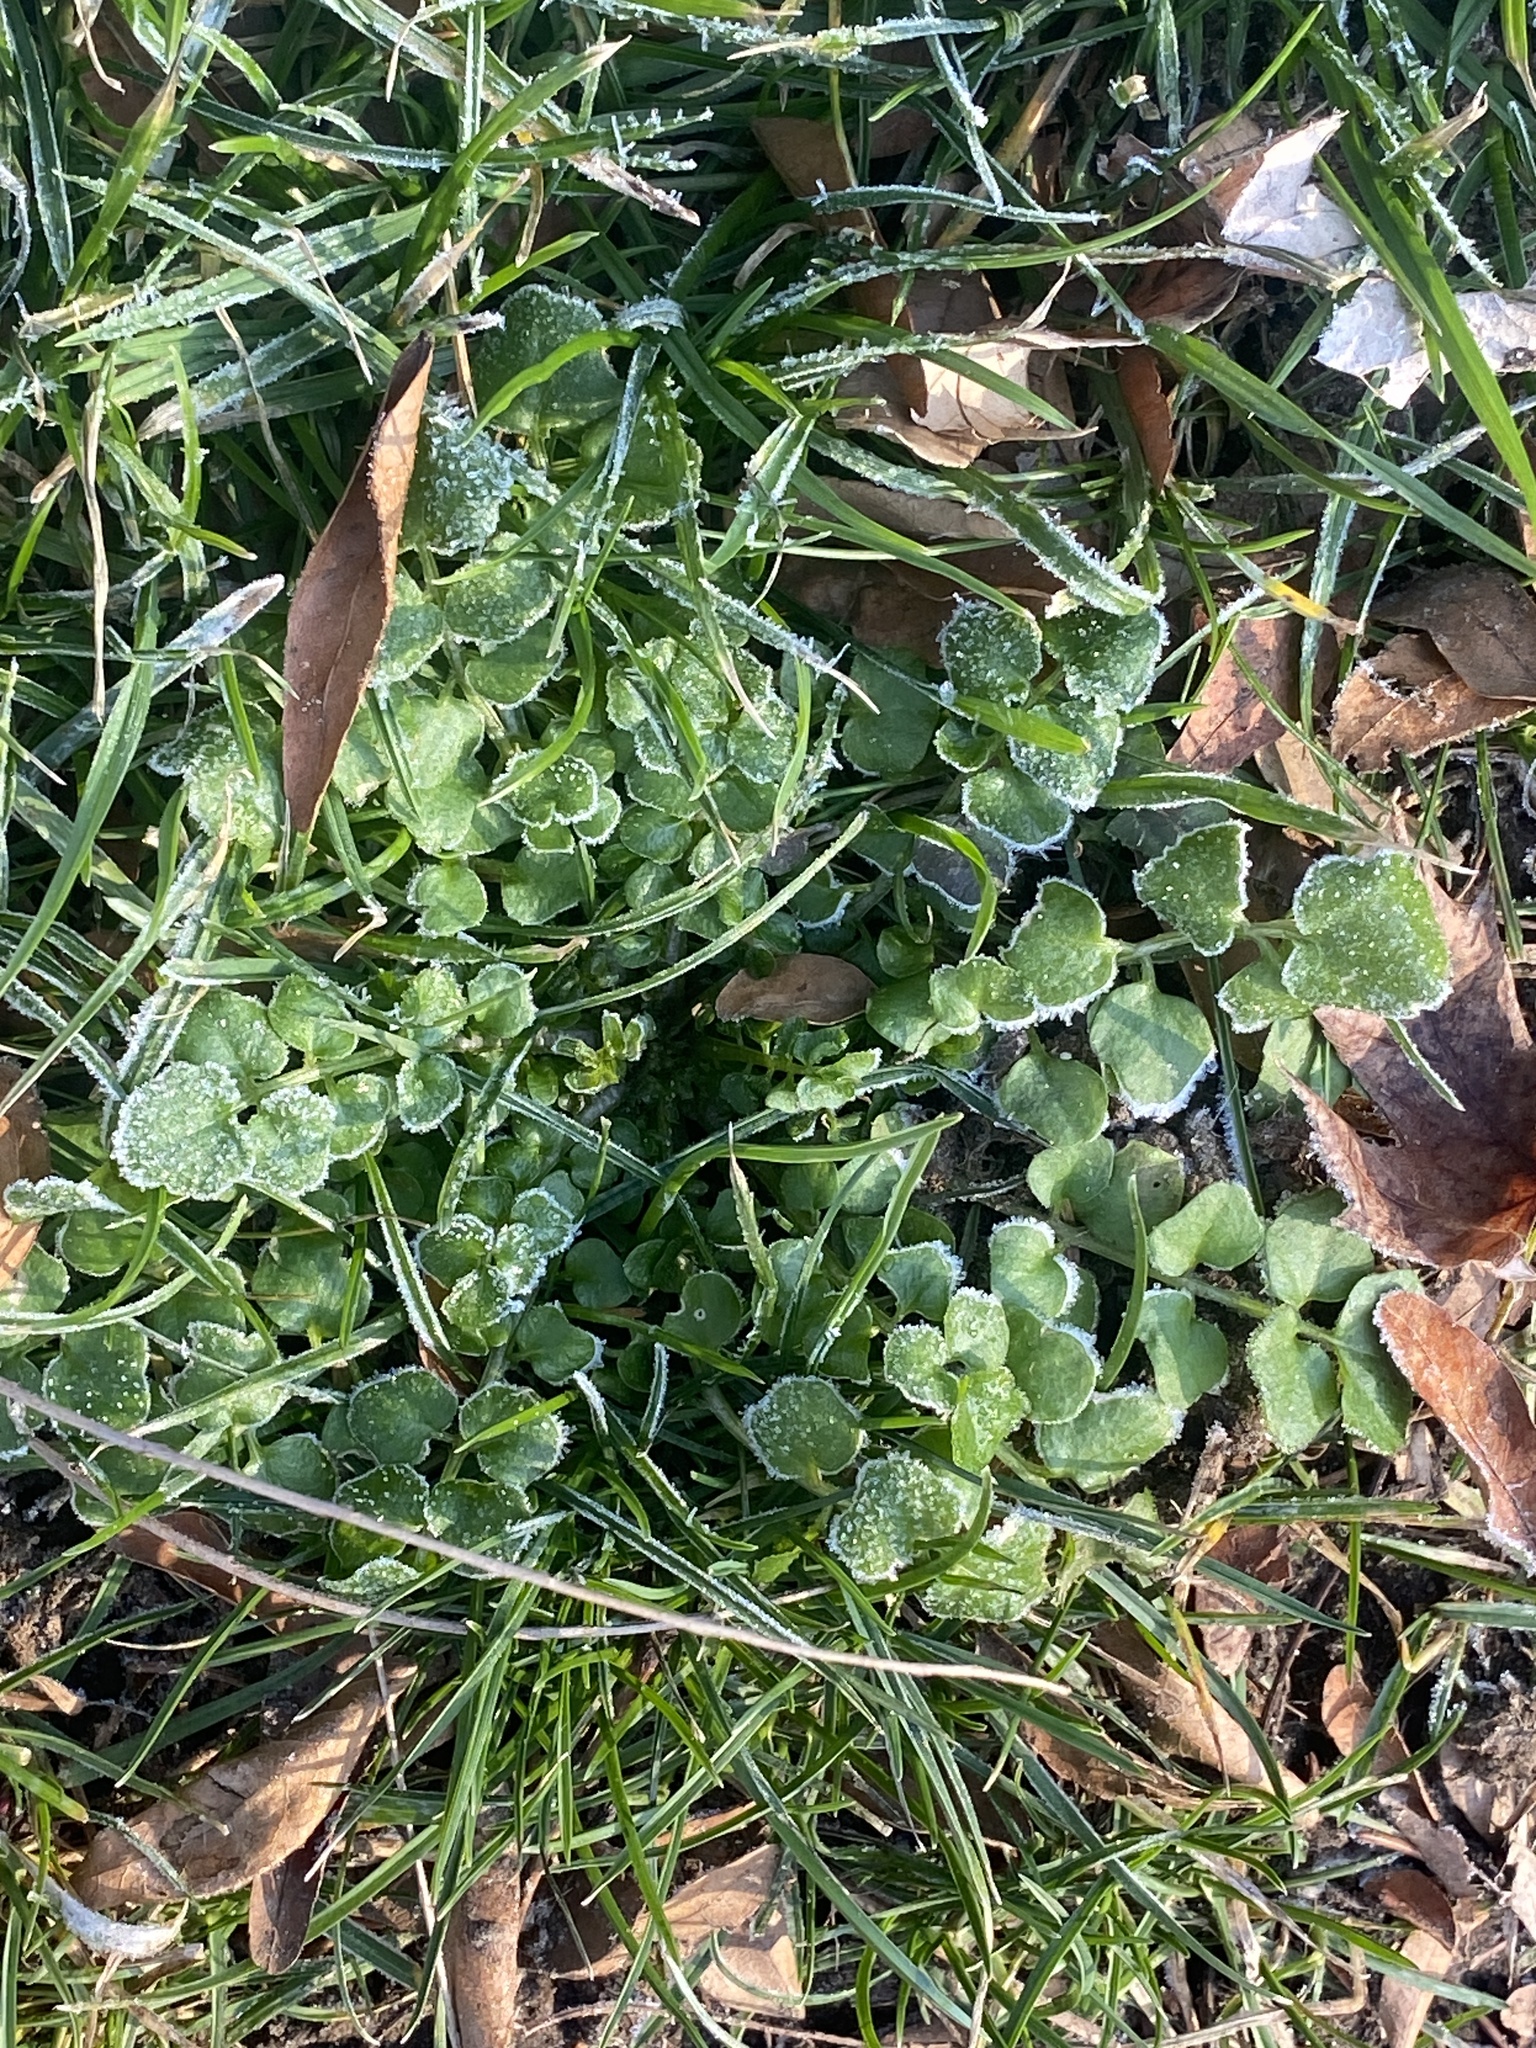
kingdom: Plantae
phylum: Tracheophyta
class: Magnoliopsida
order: Brassicales
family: Brassicaceae
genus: Cardamine
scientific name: Cardamine hirsuta
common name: Hairy bittercress
